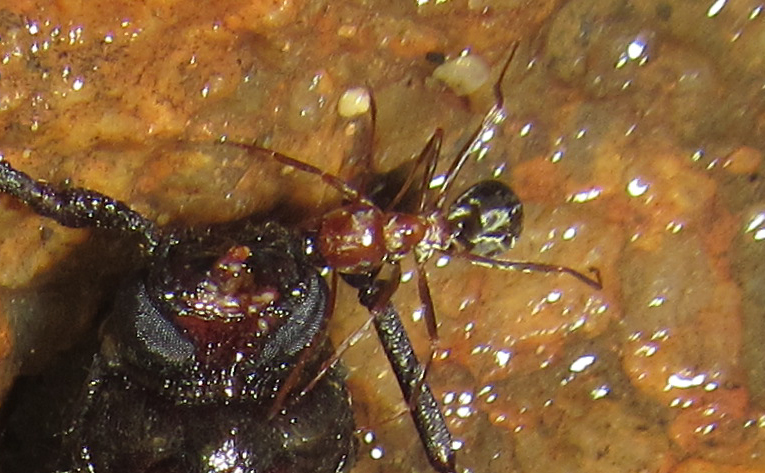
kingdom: Animalia
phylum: Arthropoda
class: Insecta
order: Hymenoptera
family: Formicidae
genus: Anoplolepis
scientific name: Anoplolepis steingroeveri
